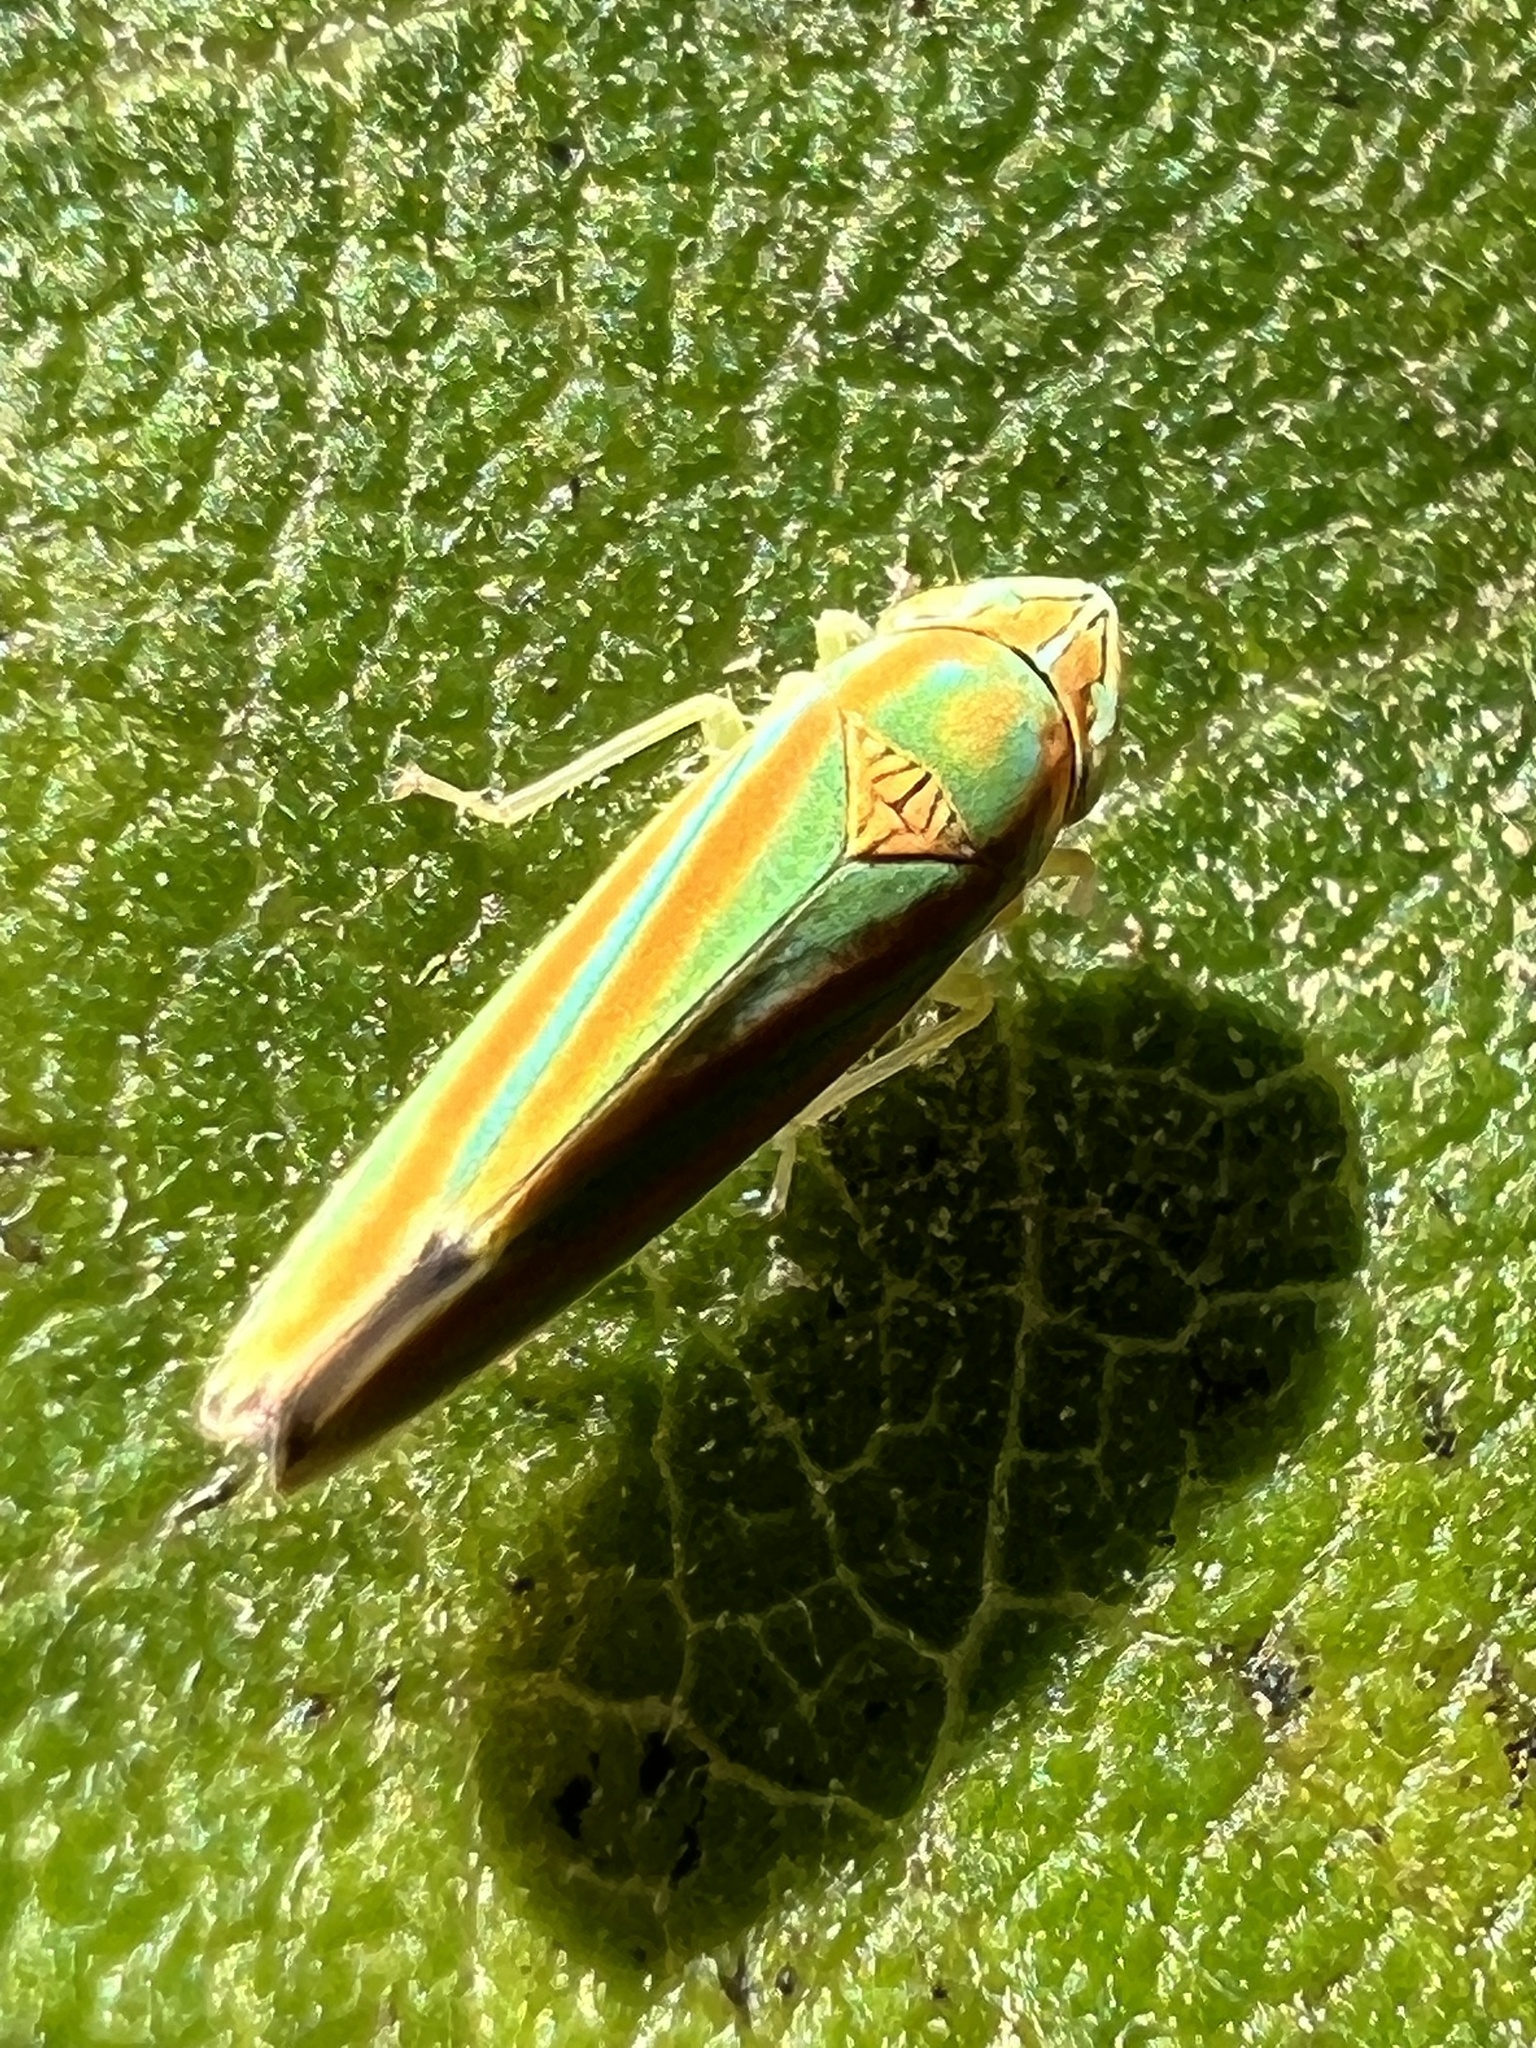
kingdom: Animalia
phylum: Arthropoda
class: Insecta
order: Hemiptera
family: Cicadellidae
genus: Graphocephala
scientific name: Graphocephala versuta
